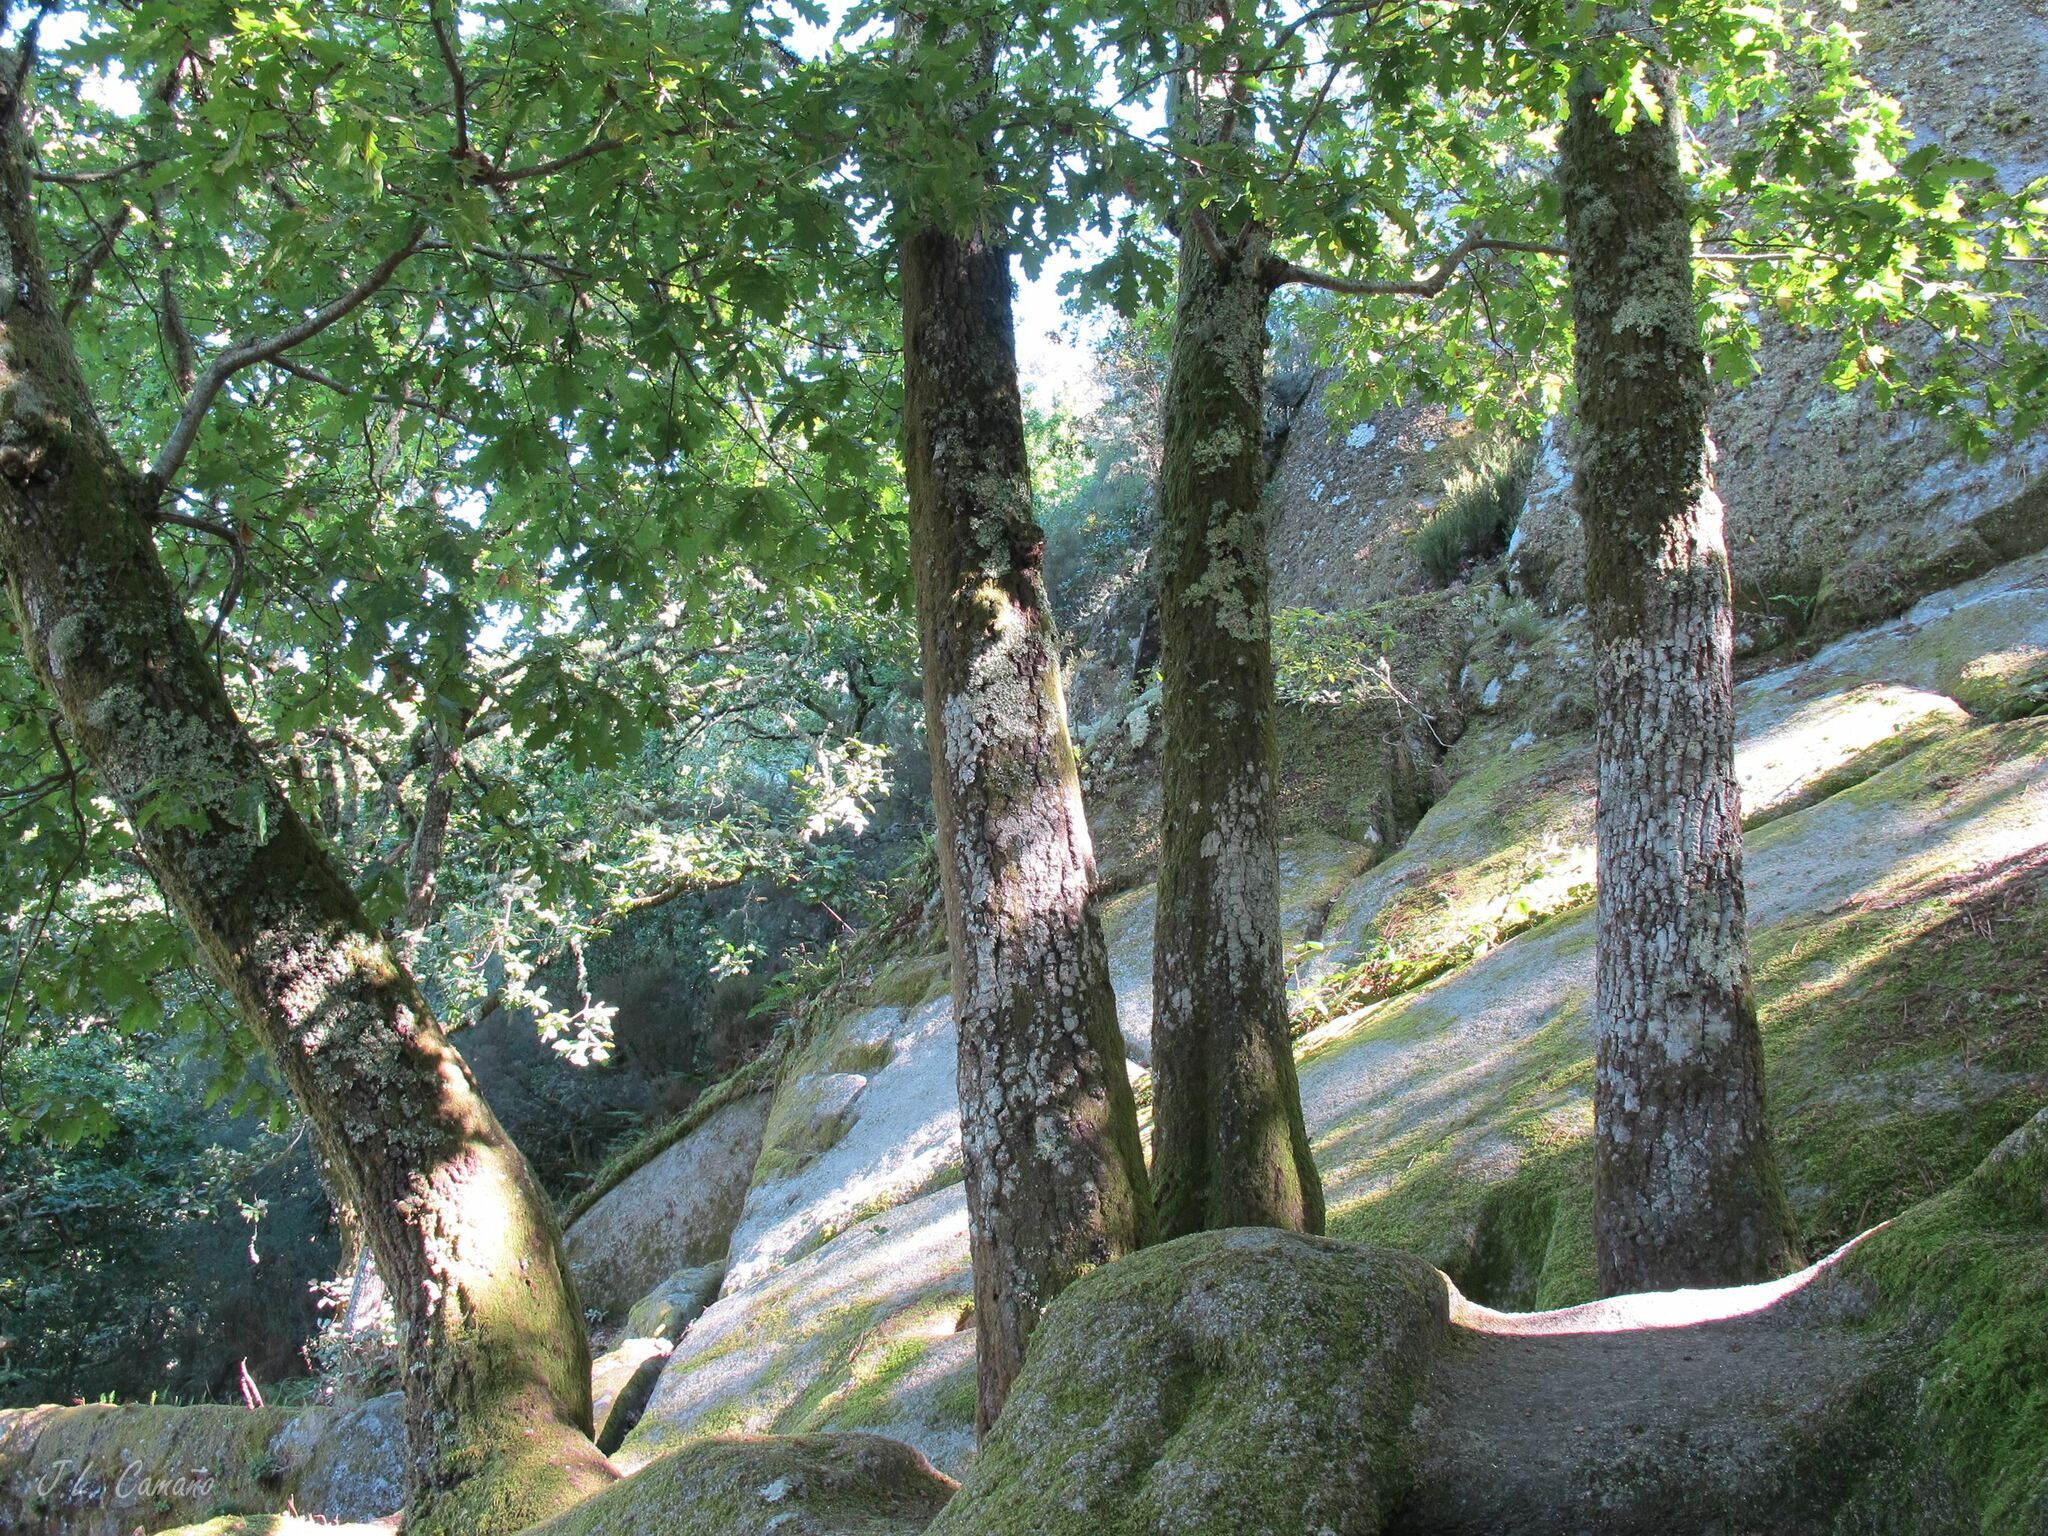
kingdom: Plantae
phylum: Bryophyta
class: Bryopsida
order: Hypnales
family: Lembophyllaceae
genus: Nogopterium
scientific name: Nogopterium gracile
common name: Bird's-foot wing-moss
